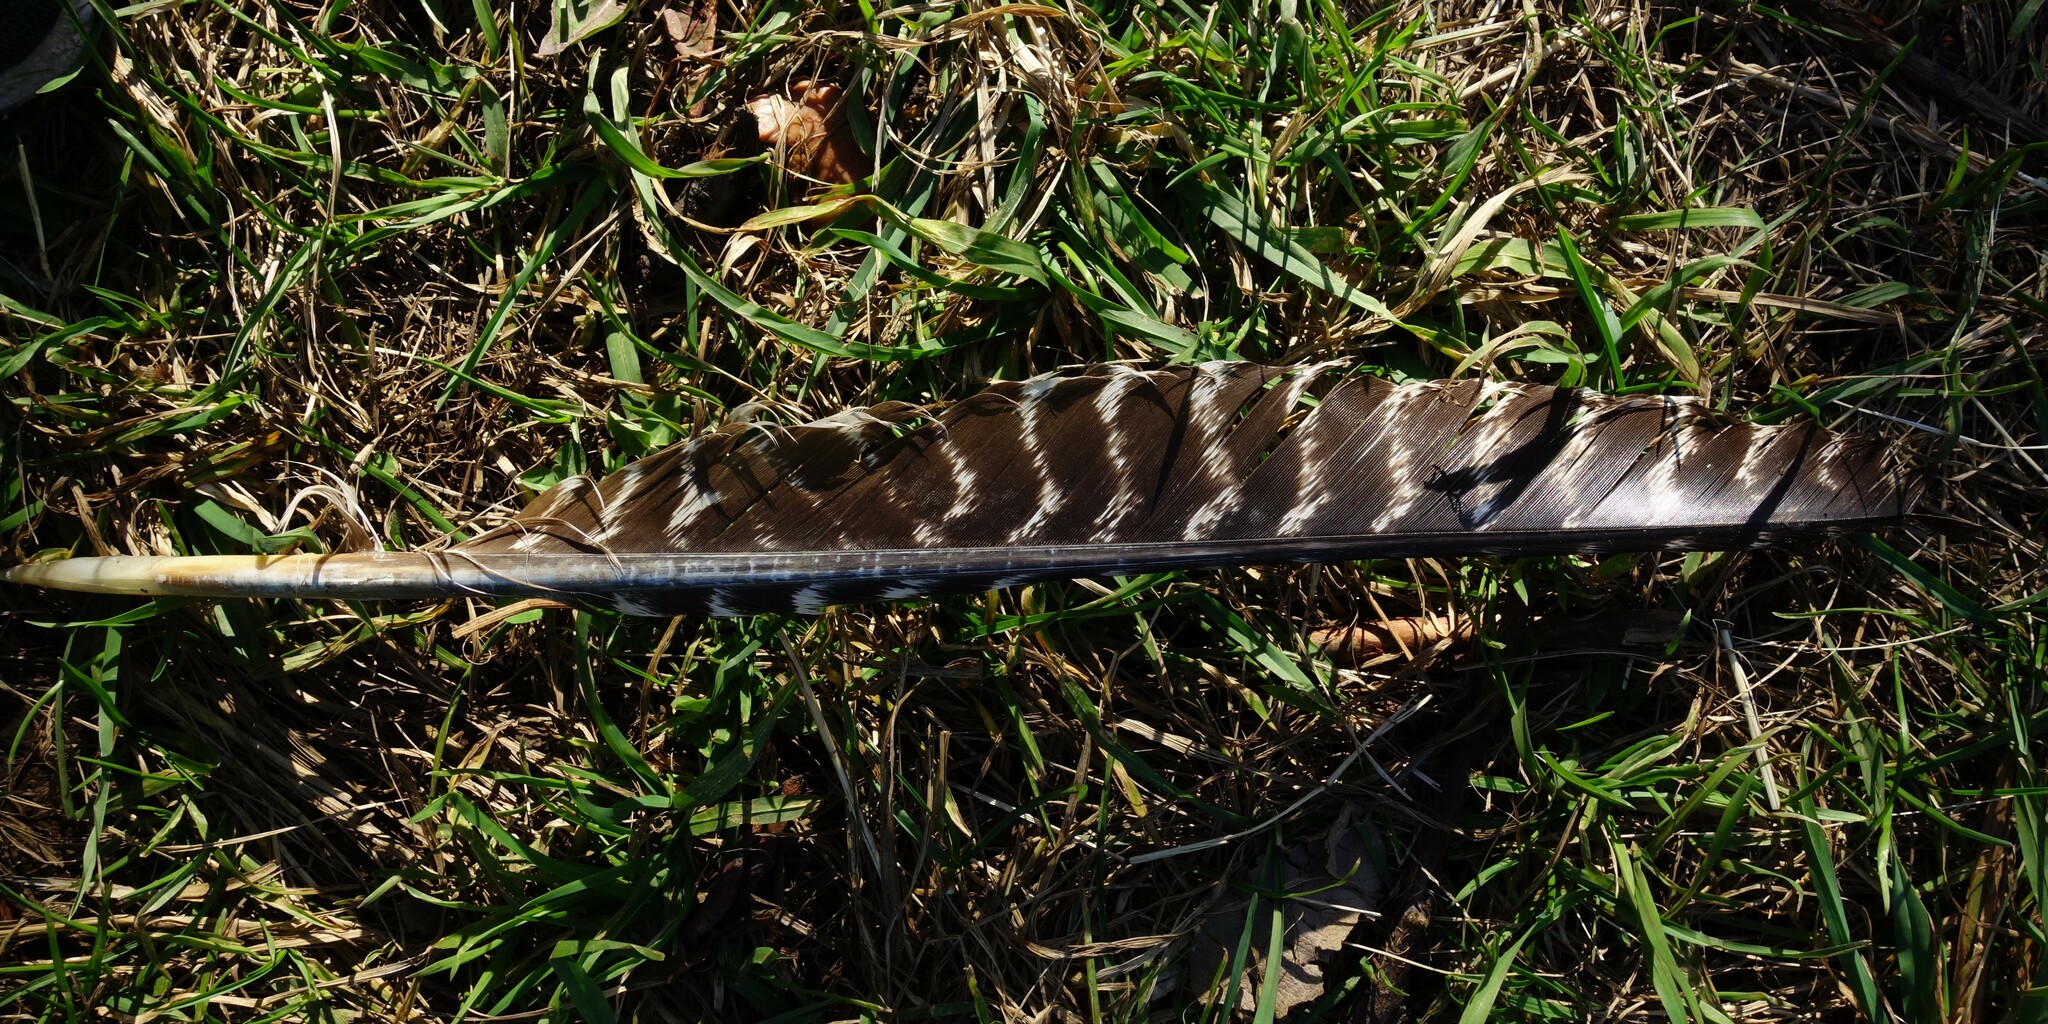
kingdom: Animalia
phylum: Chordata
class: Aves
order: Galliformes
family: Phasianidae
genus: Meleagris
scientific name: Meleagris gallopavo
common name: Wild turkey
